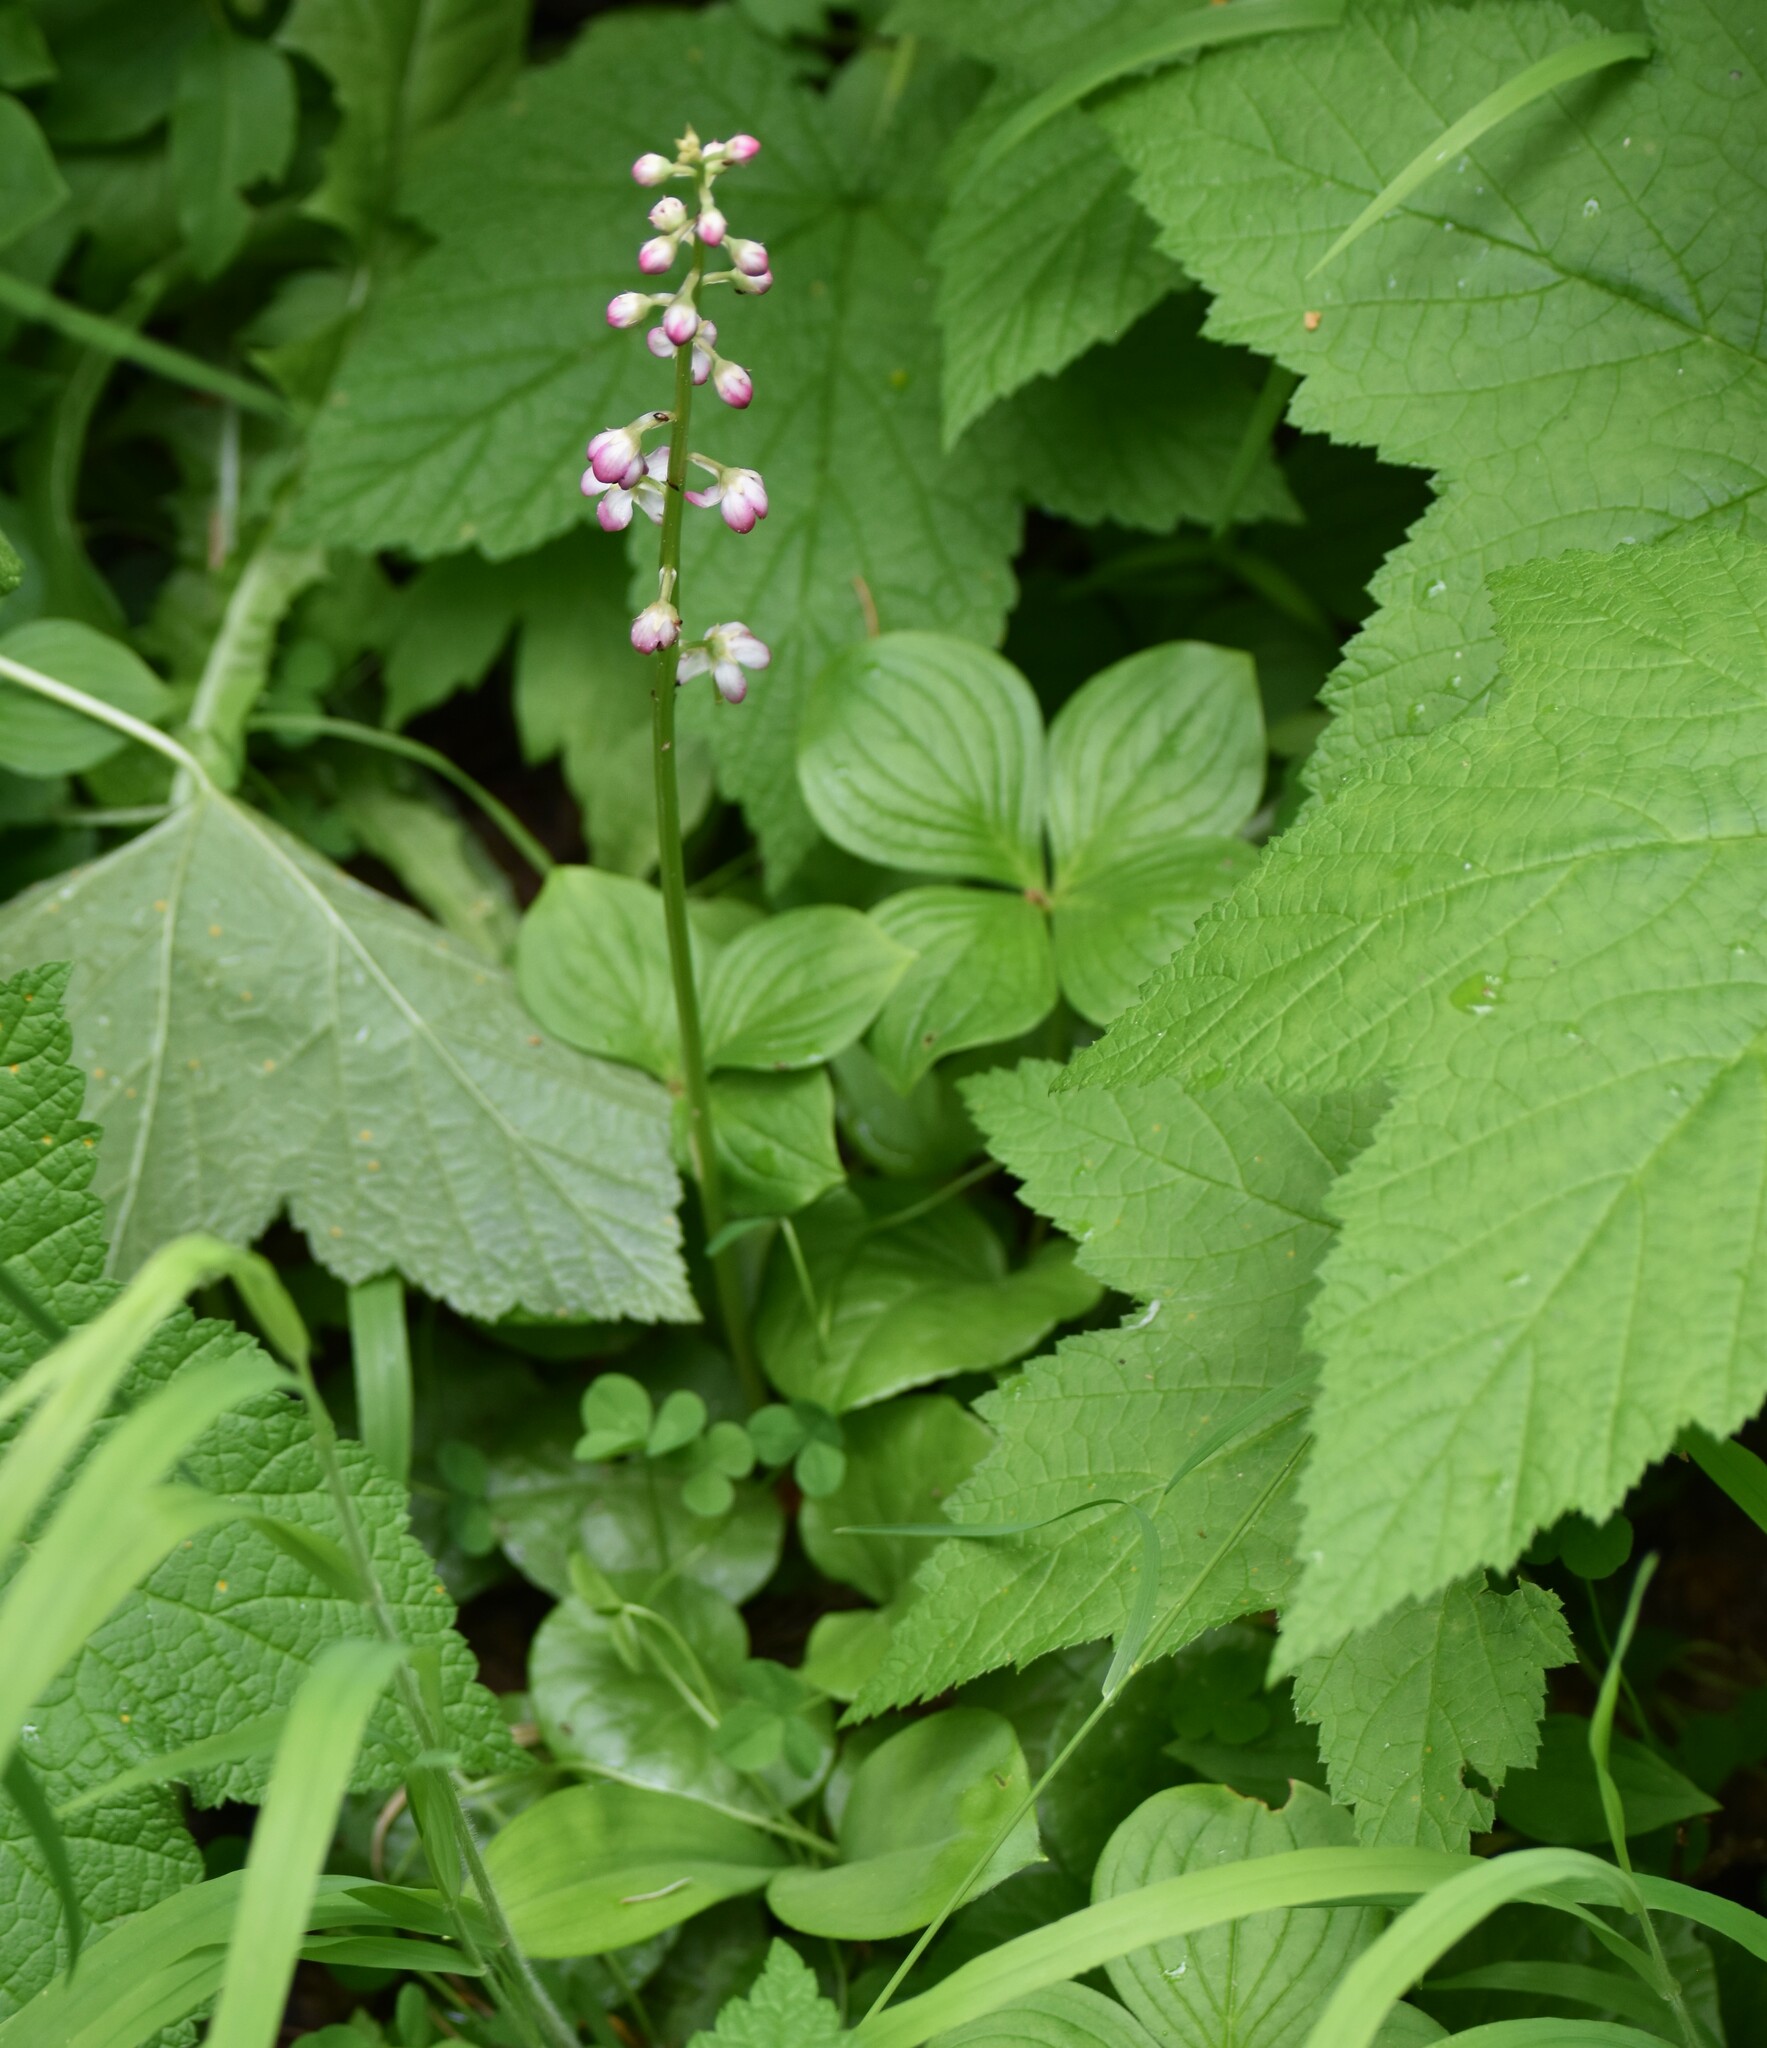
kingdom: Plantae
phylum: Tracheophyta
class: Magnoliopsida
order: Ericales
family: Ericaceae
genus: Pyrola
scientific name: Pyrola asarifolia
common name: Bog wintergreen
